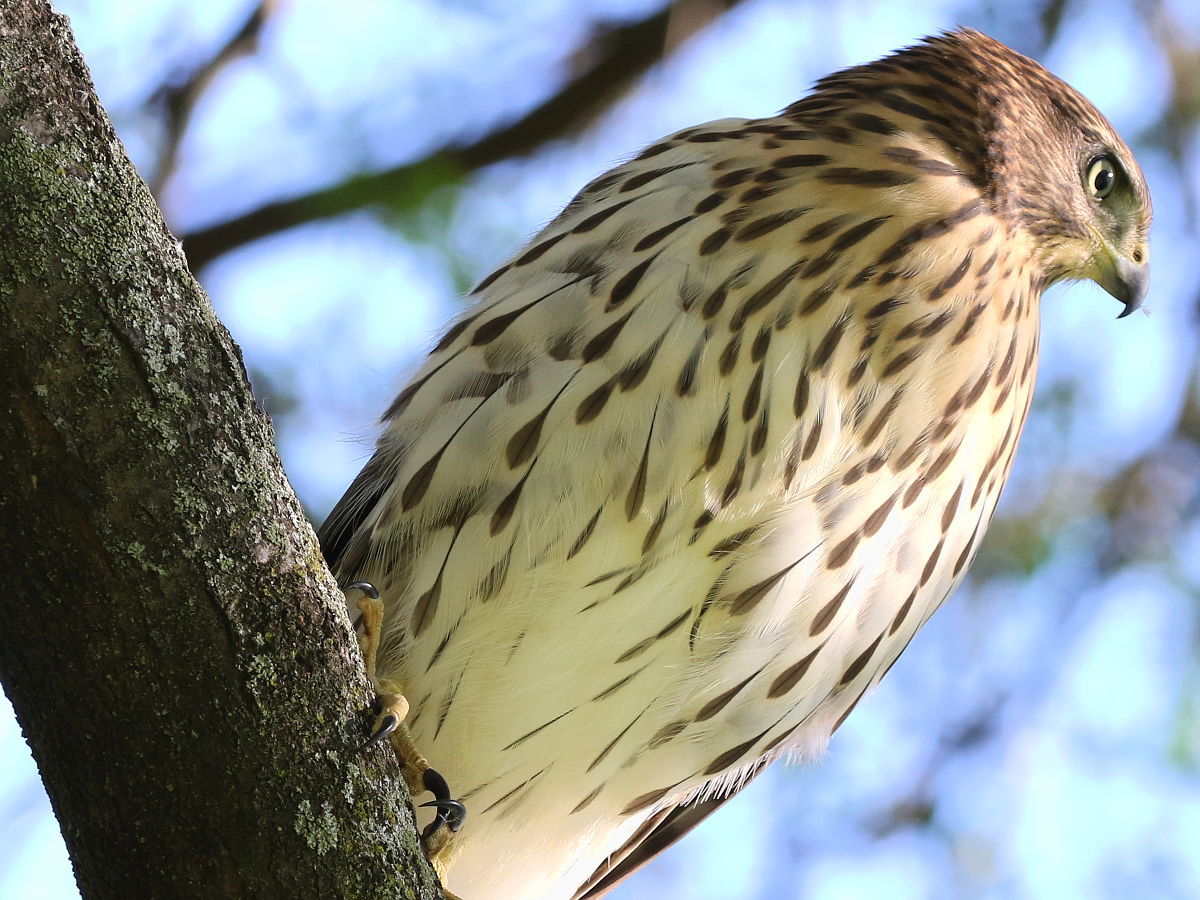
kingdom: Animalia
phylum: Chordata
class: Aves
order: Accipitriformes
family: Accipitridae
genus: Accipiter
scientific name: Accipiter cooperii
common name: Cooper's hawk
